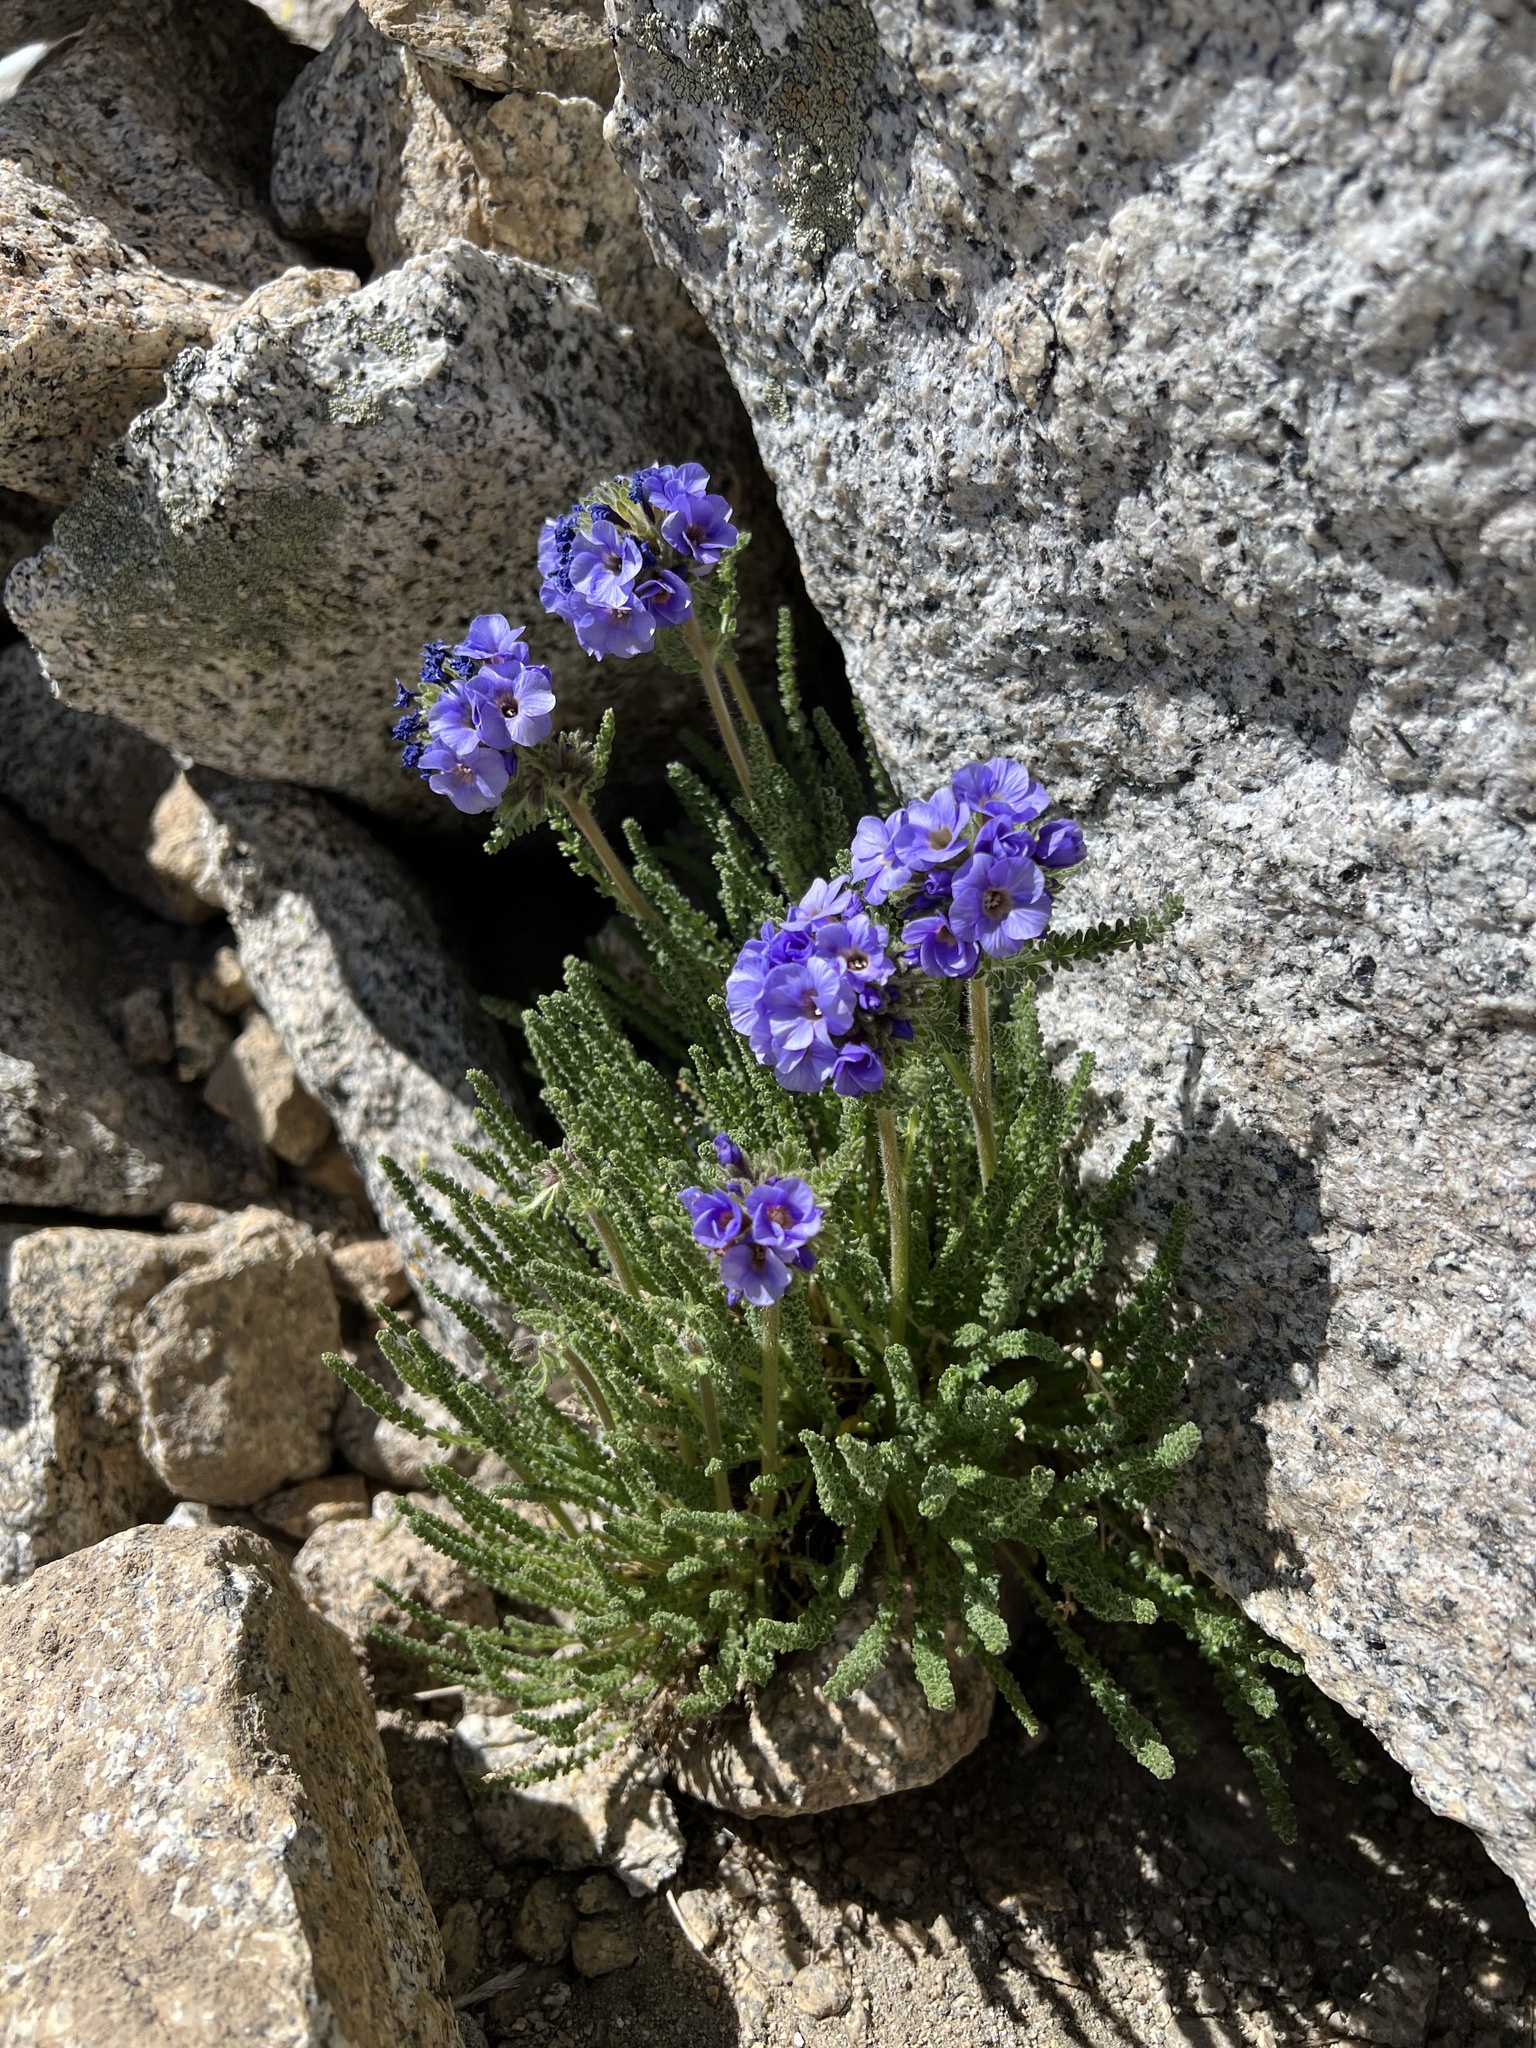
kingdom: Plantae
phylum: Tracheophyta
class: Magnoliopsida
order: Ericales
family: Polemoniaceae
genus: Polemonium
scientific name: Polemonium eximium
